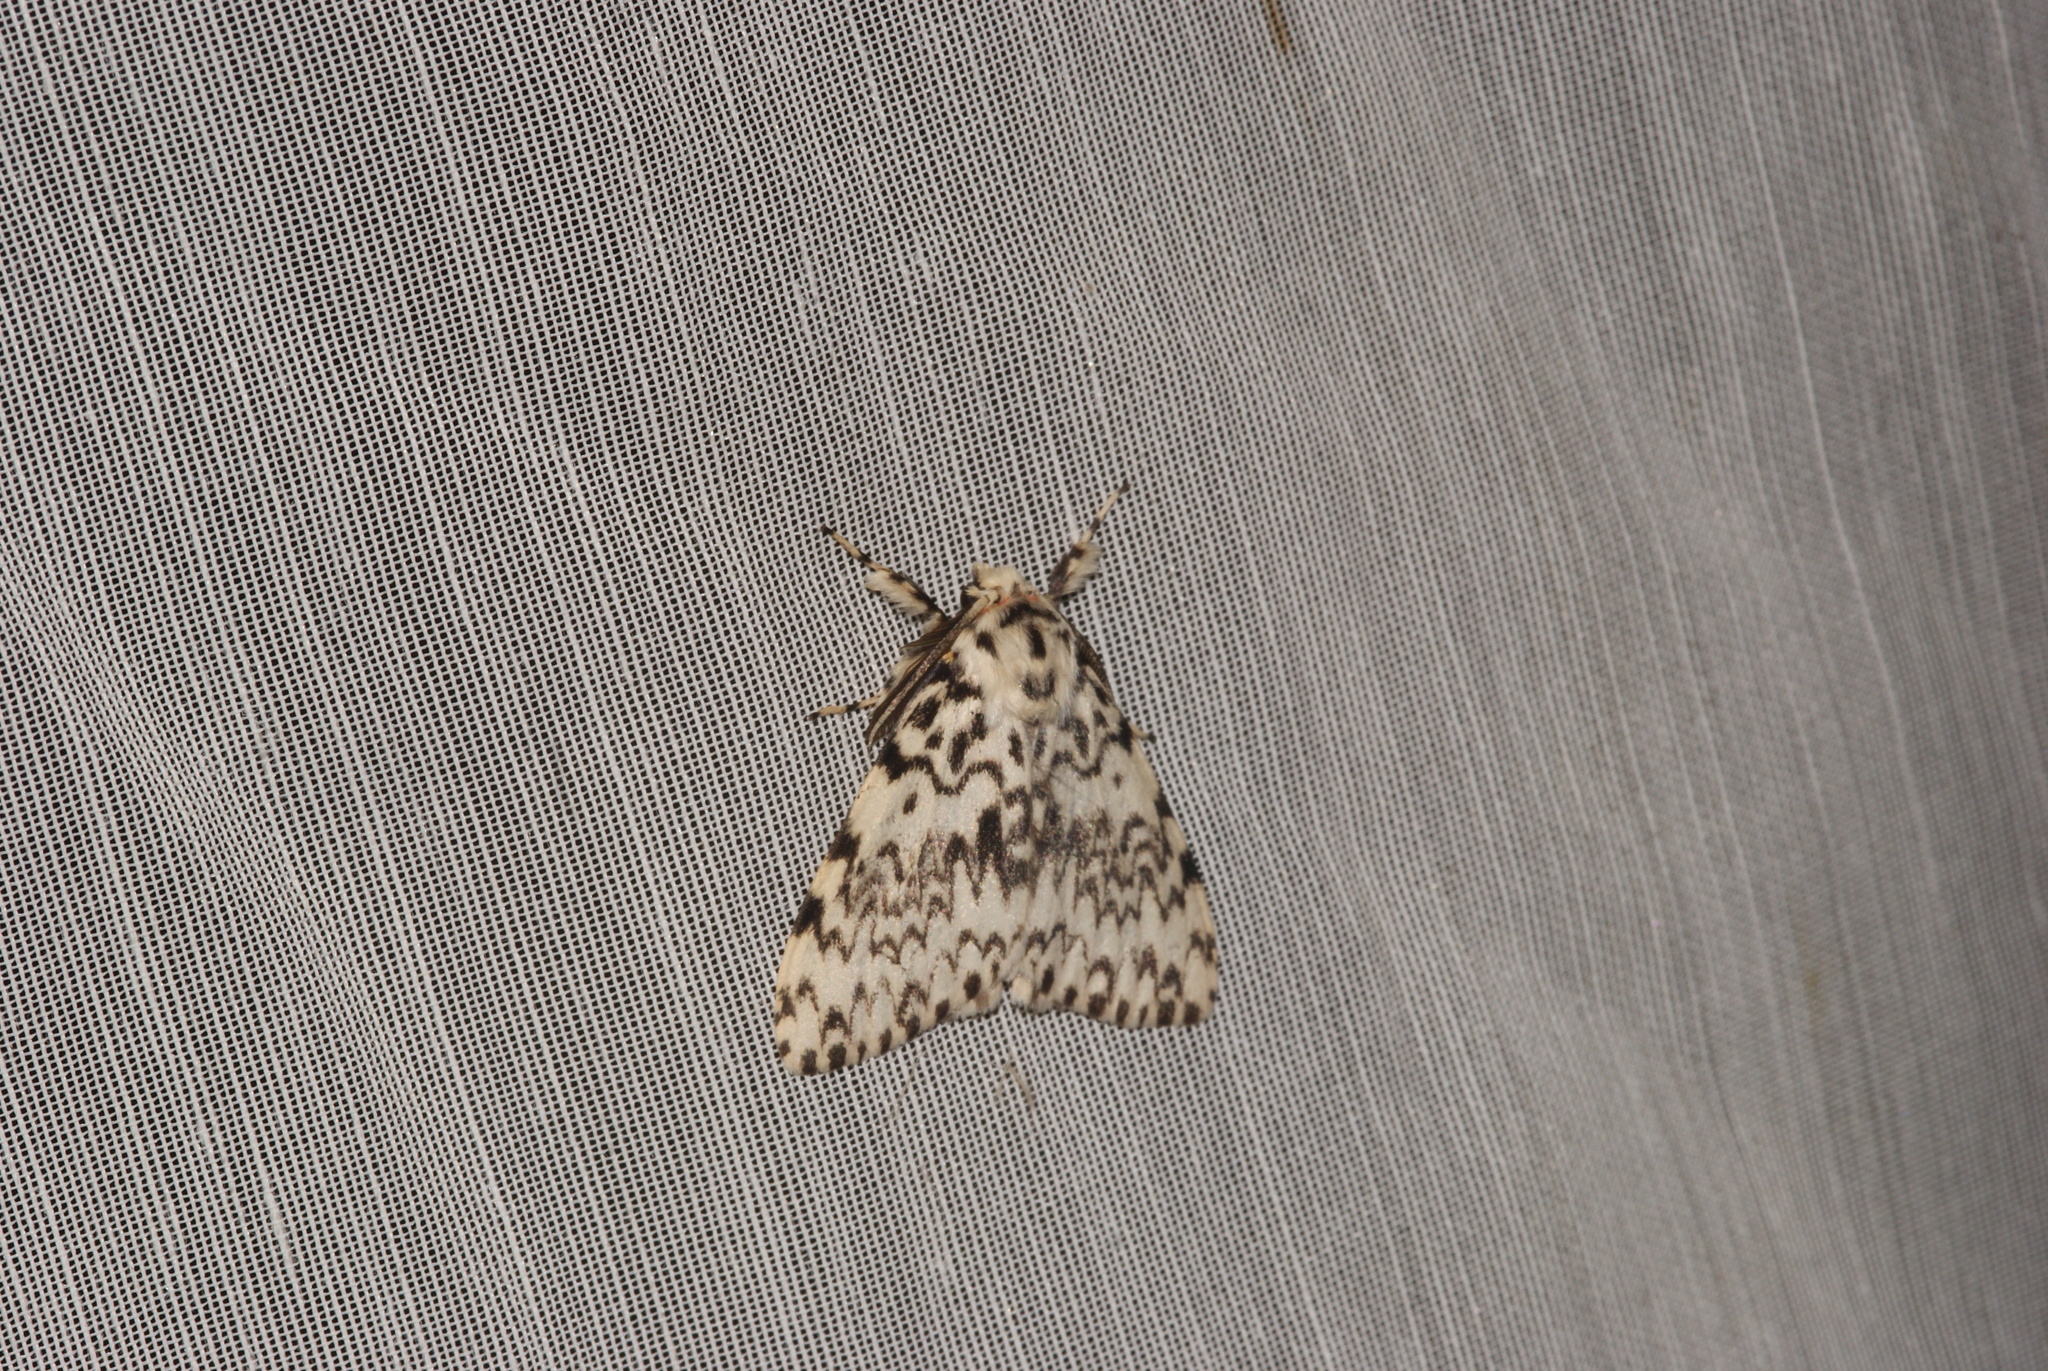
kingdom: Animalia
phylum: Arthropoda
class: Insecta
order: Lepidoptera
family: Erebidae
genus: Lymantria
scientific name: Lymantria monacha
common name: Black arches
